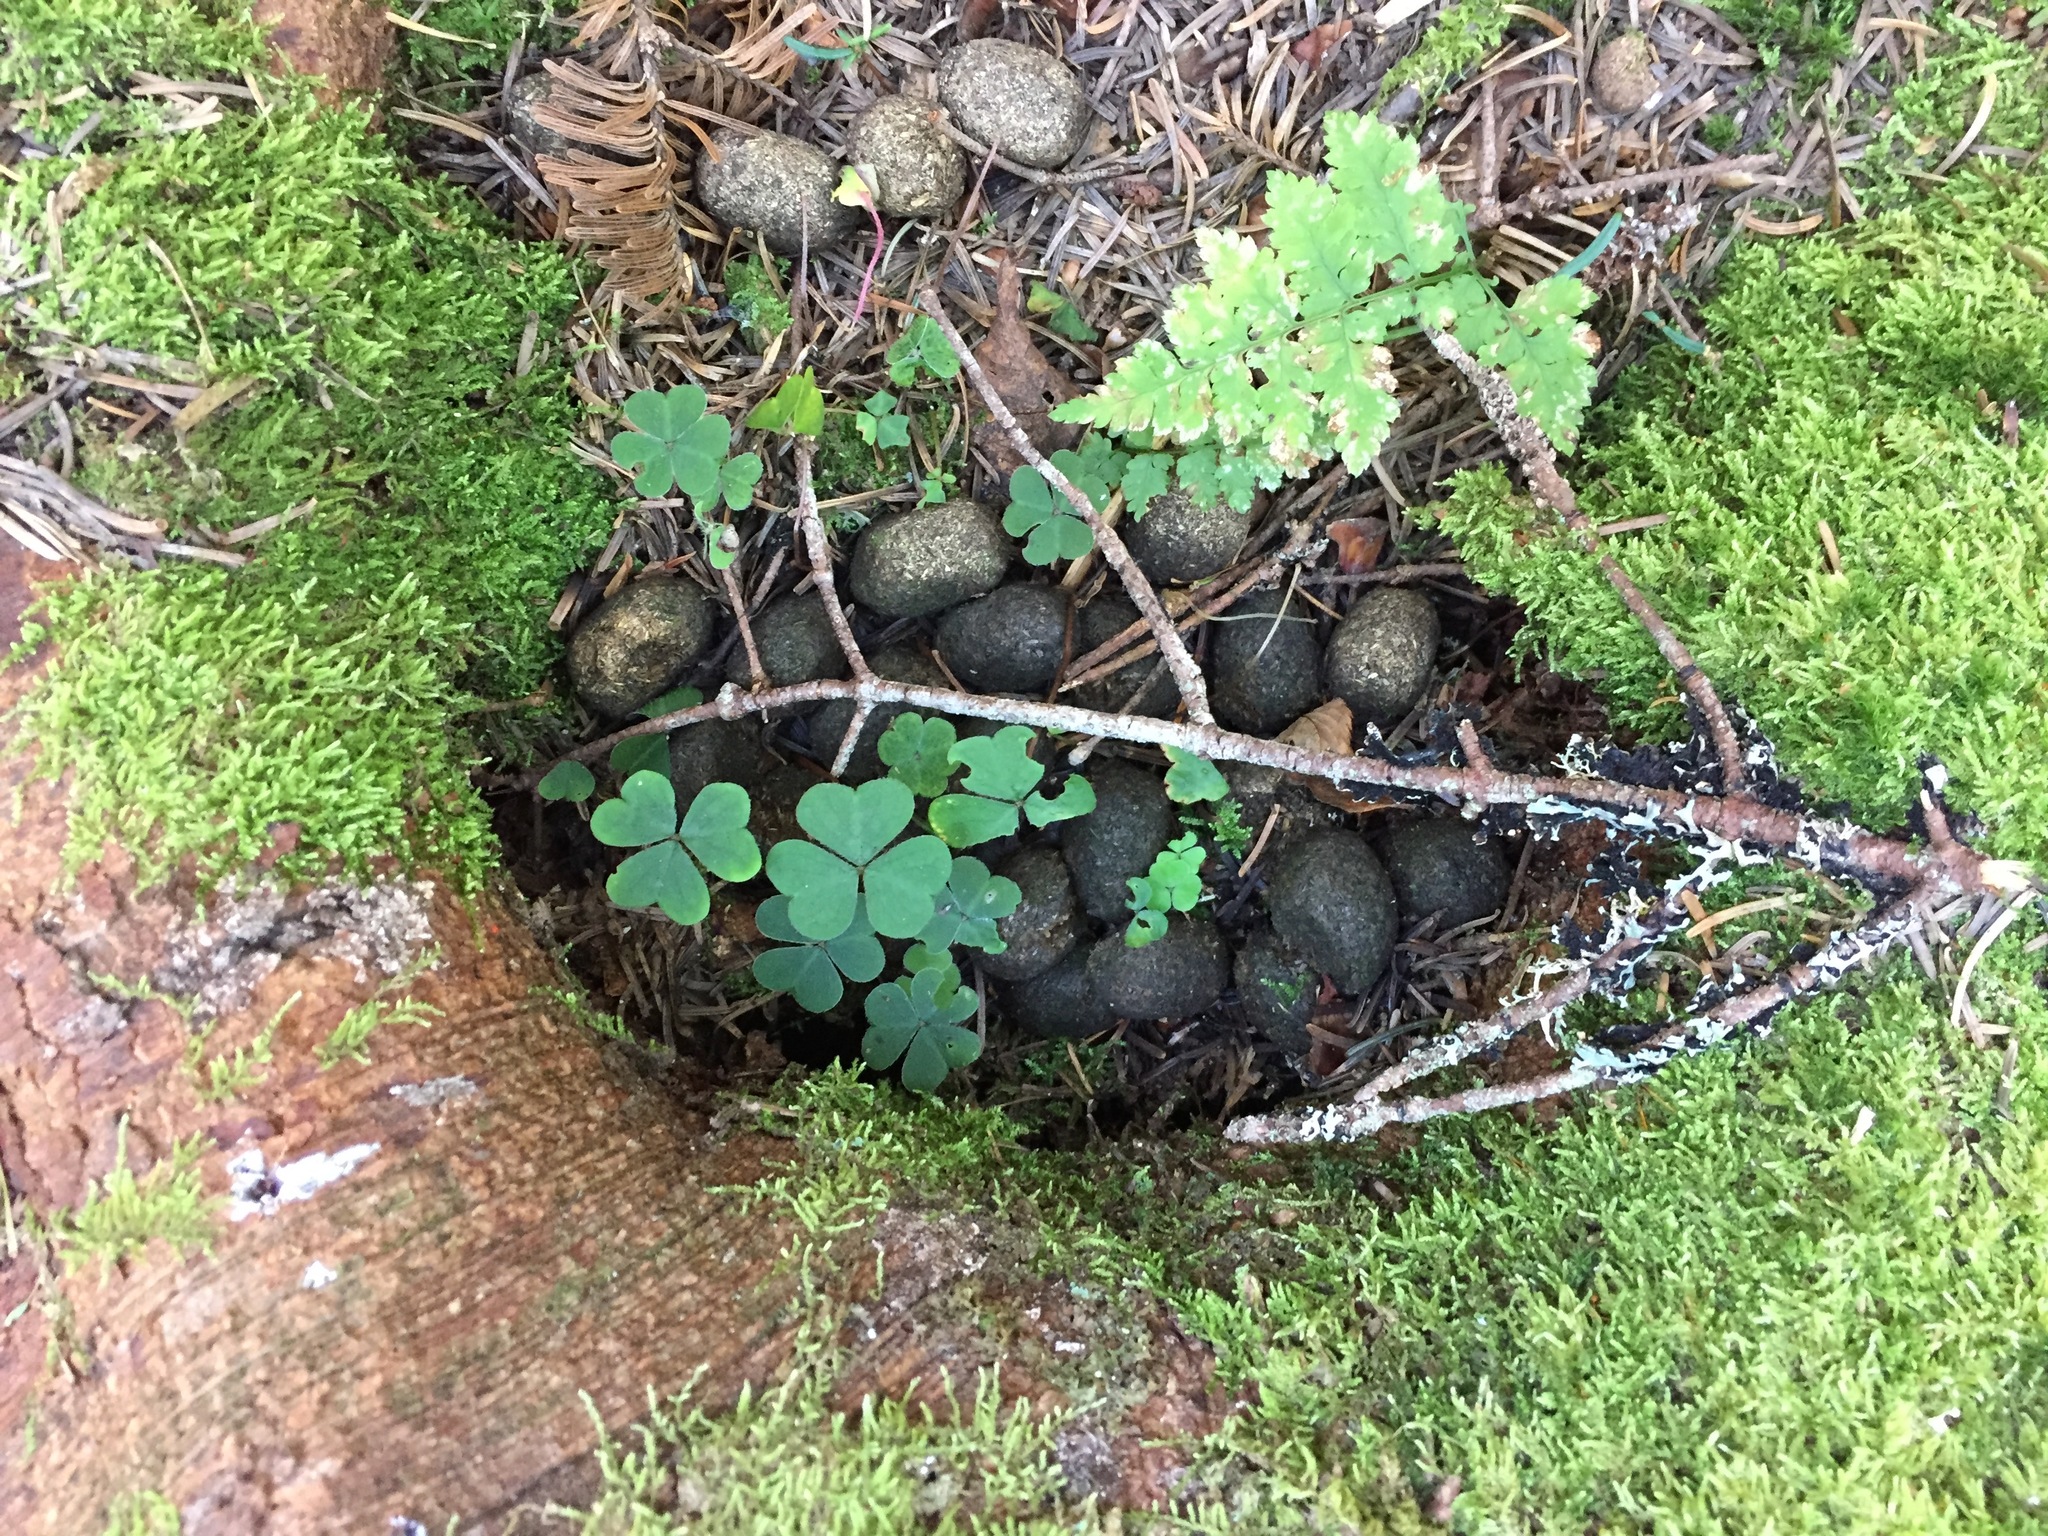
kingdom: Animalia
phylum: Chordata
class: Mammalia
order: Artiodactyla
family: Cervidae
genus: Alces
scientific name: Alces alces
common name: Moose
